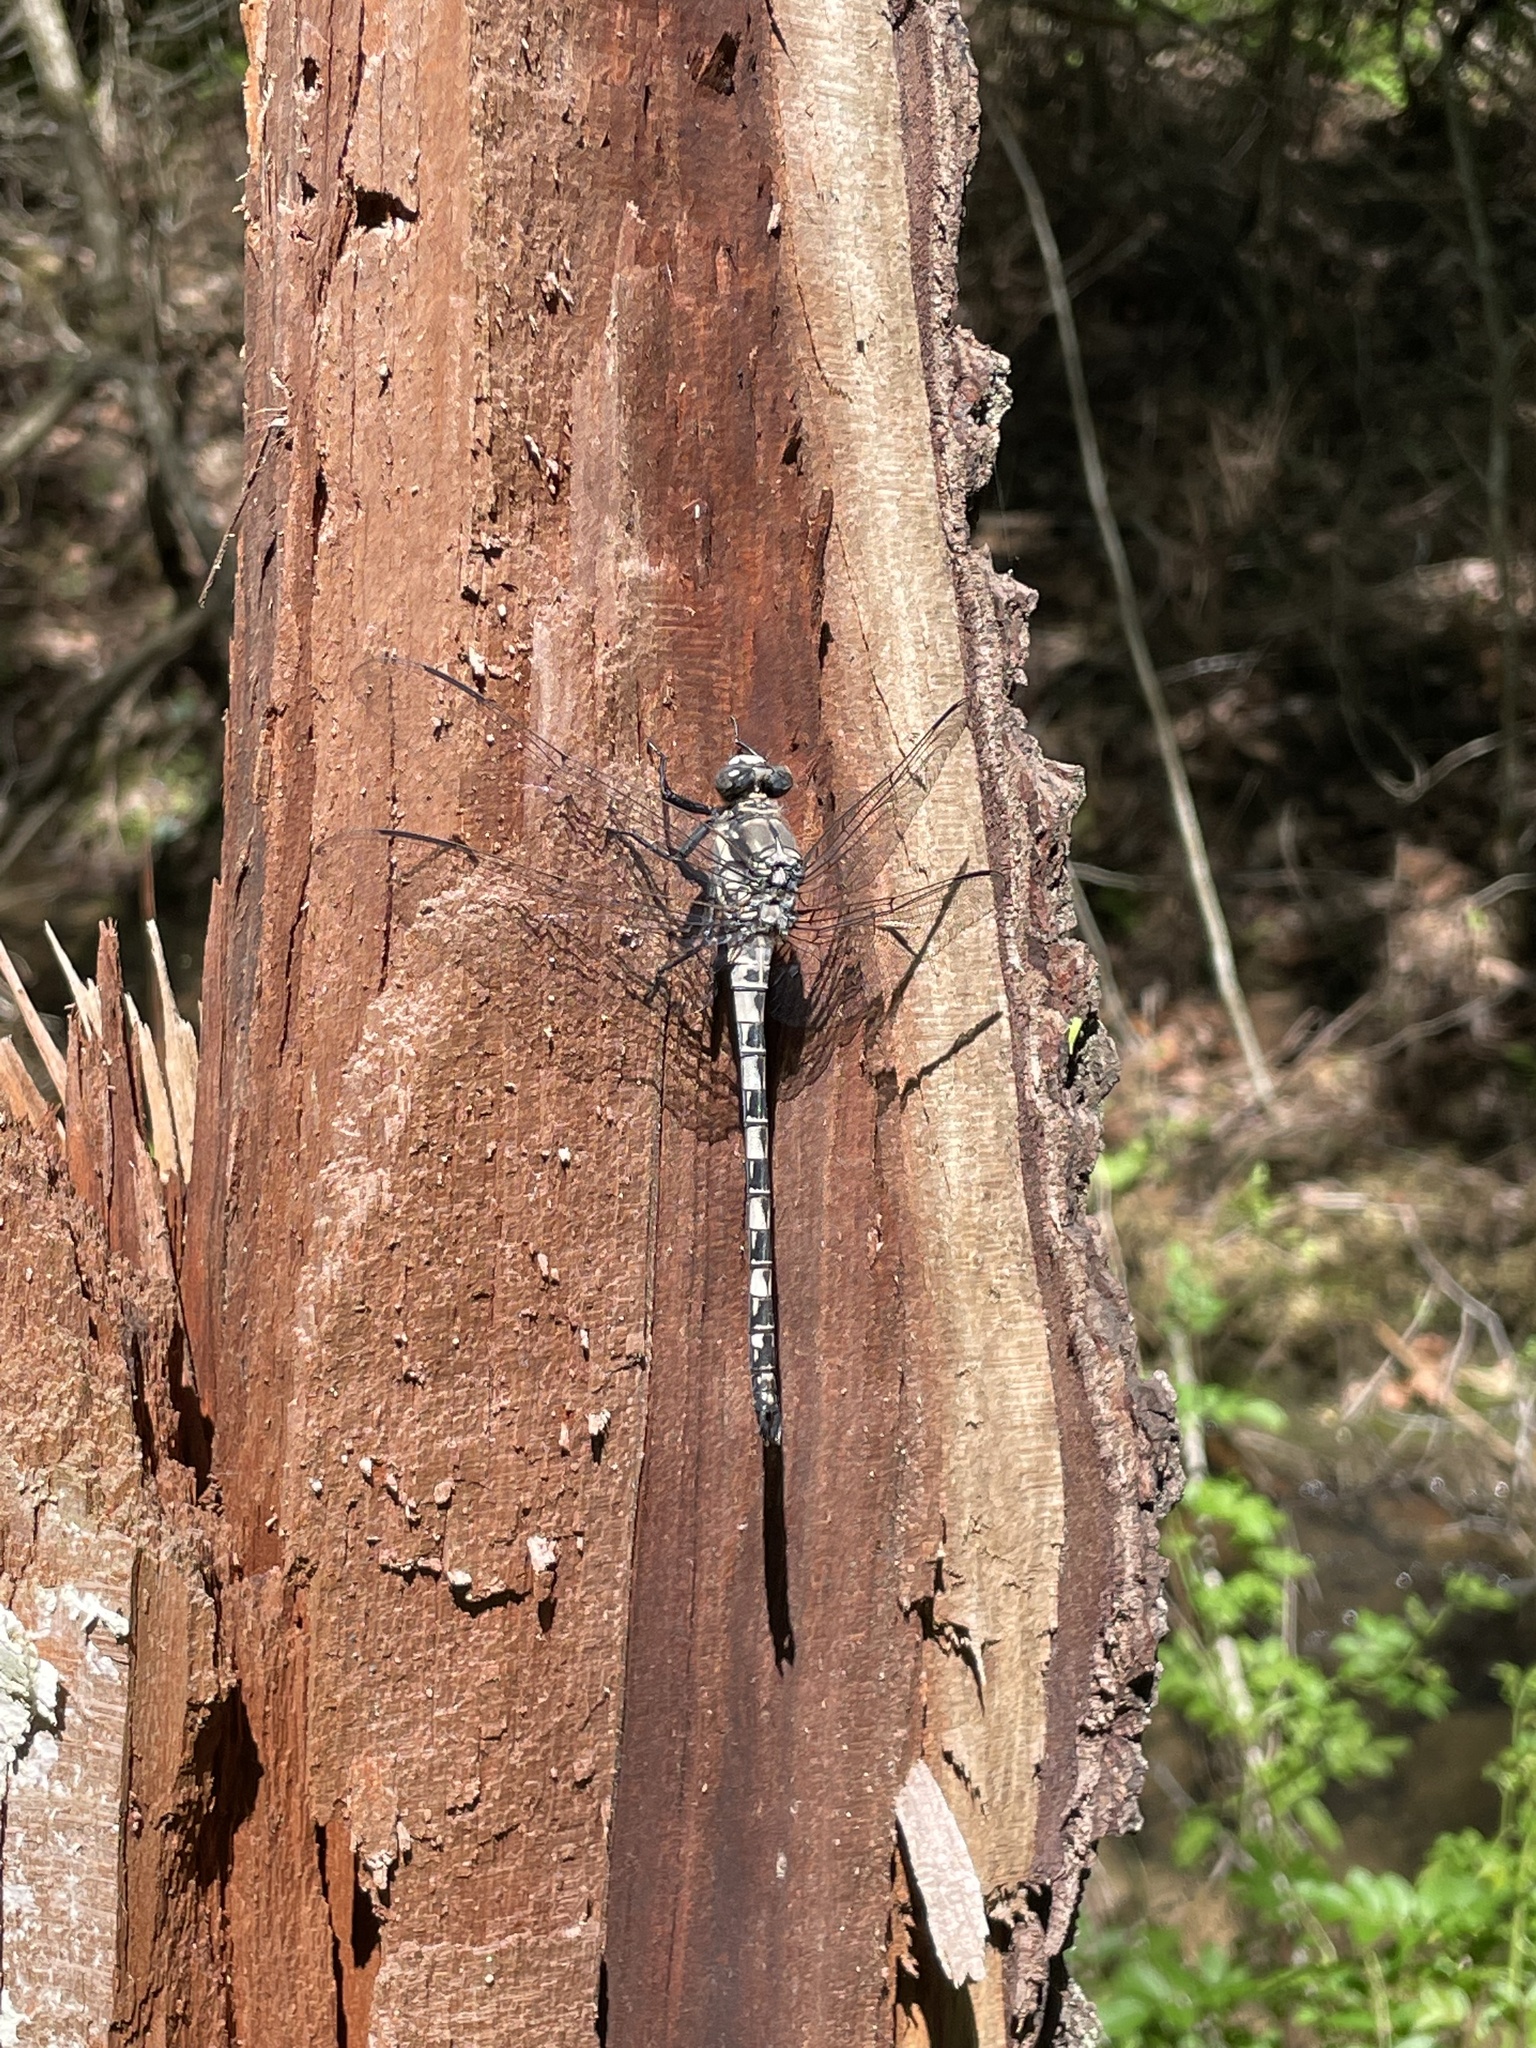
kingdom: Animalia
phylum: Arthropoda
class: Insecta
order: Odonata
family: Petaluridae
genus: Tachopteryx
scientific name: Tachopteryx thoreyi
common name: Gray petaltail
